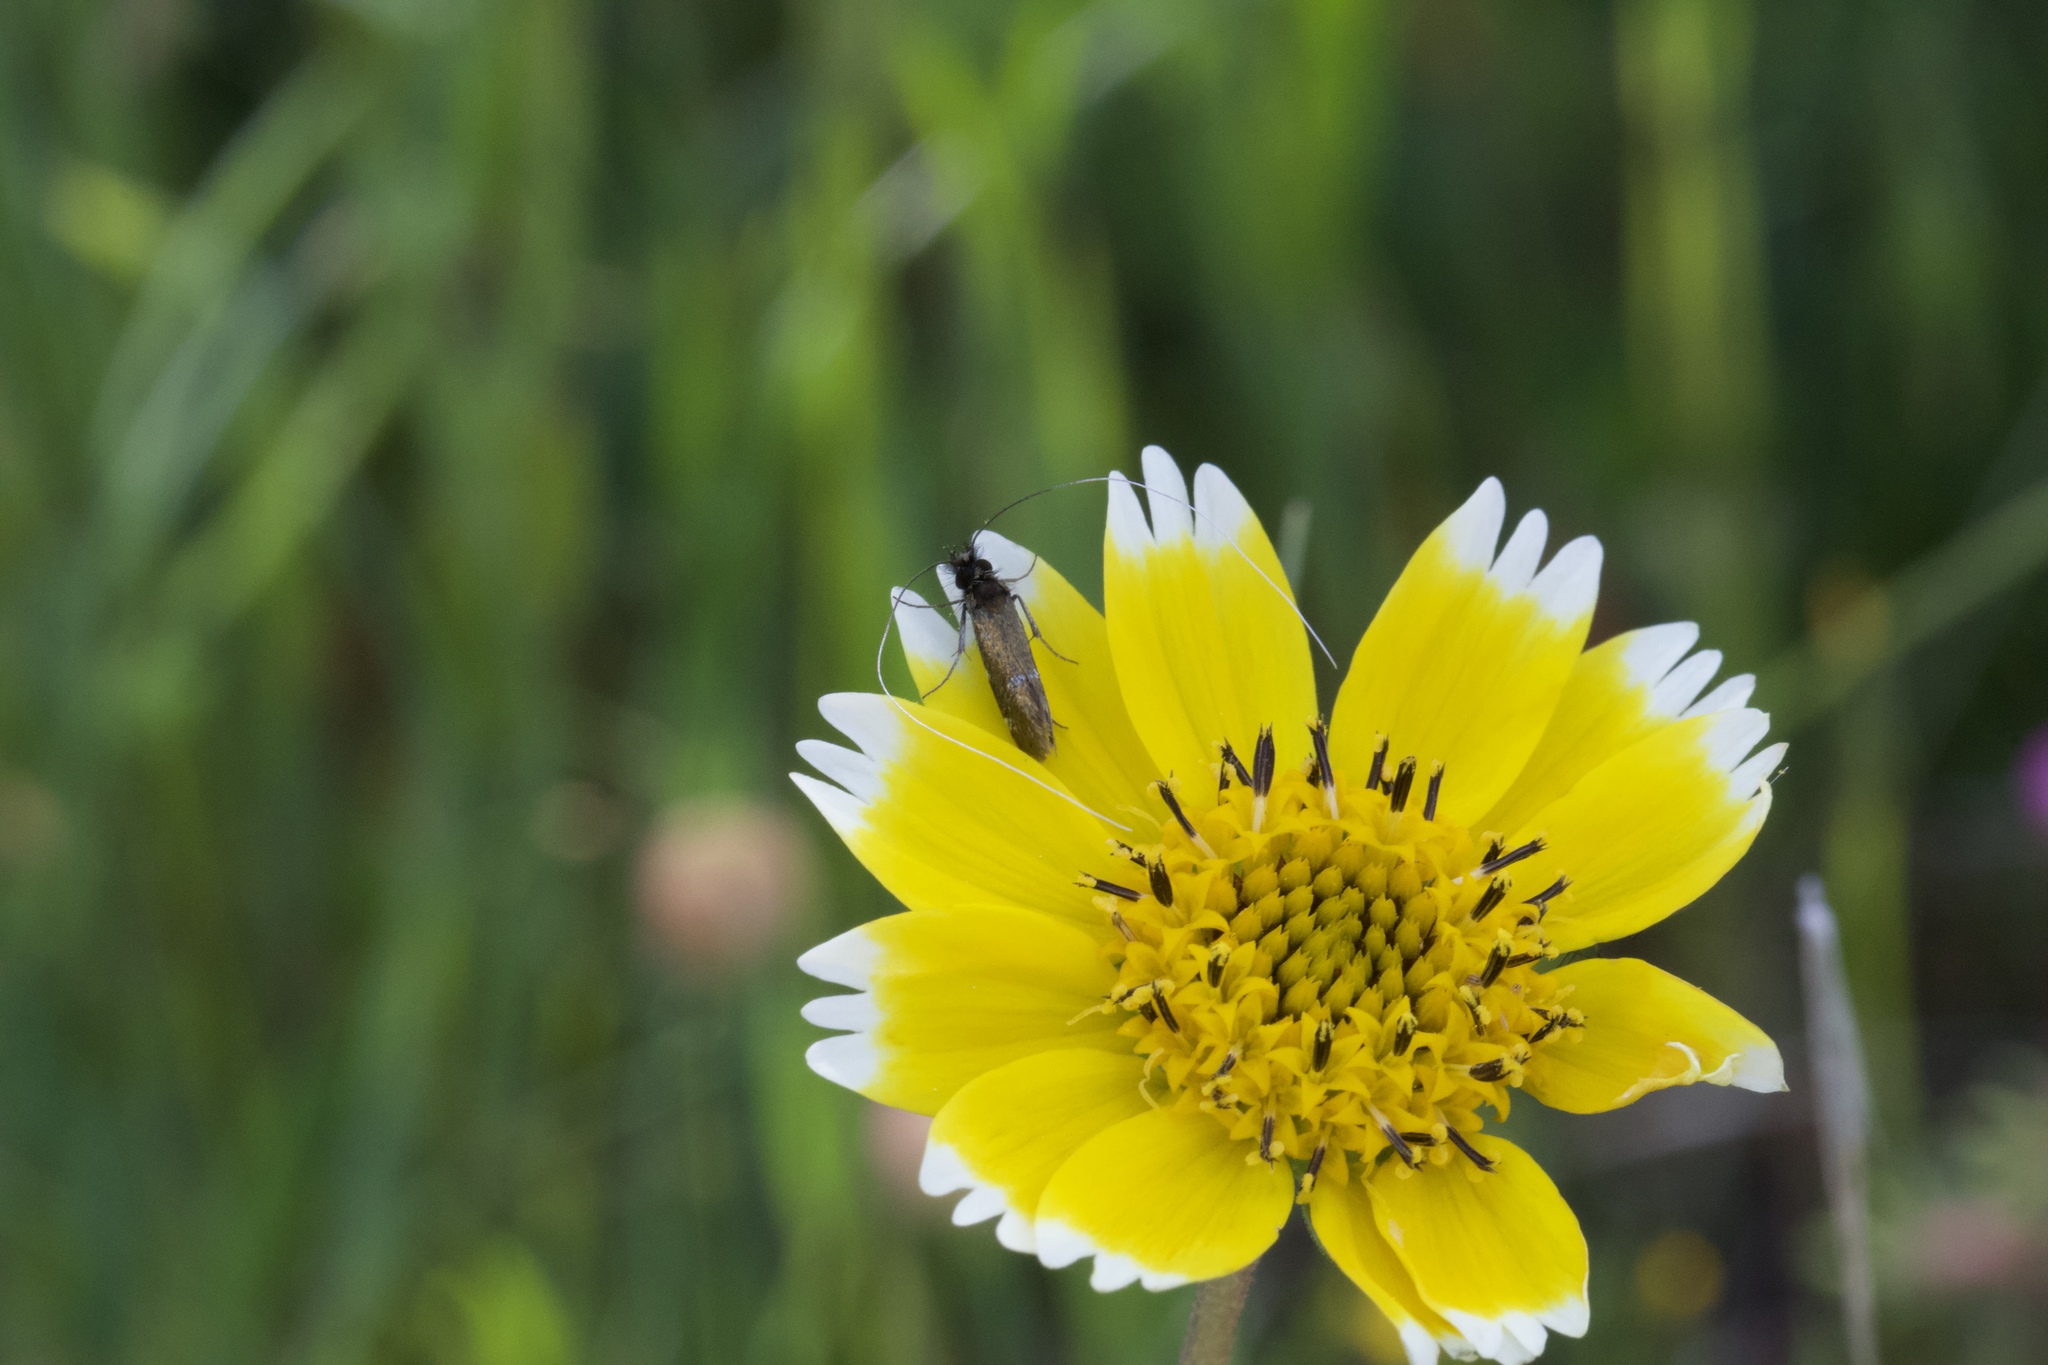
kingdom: Plantae
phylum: Tracheophyta
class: Magnoliopsida
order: Asterales
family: Asteraceae
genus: Layia
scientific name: Layia chrysanthemoides
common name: Smooth layia
